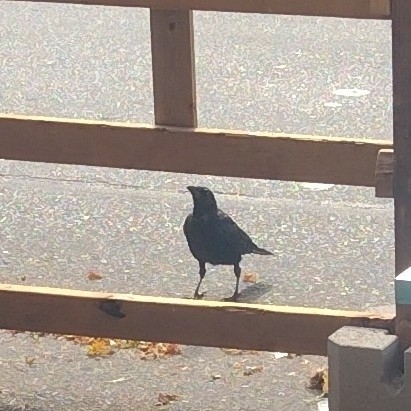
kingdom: Animalia
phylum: Chordata
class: Aves
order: Passeriformes
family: Corvidae
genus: Corvus
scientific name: Corvus brachyrhynchos
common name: American crow
